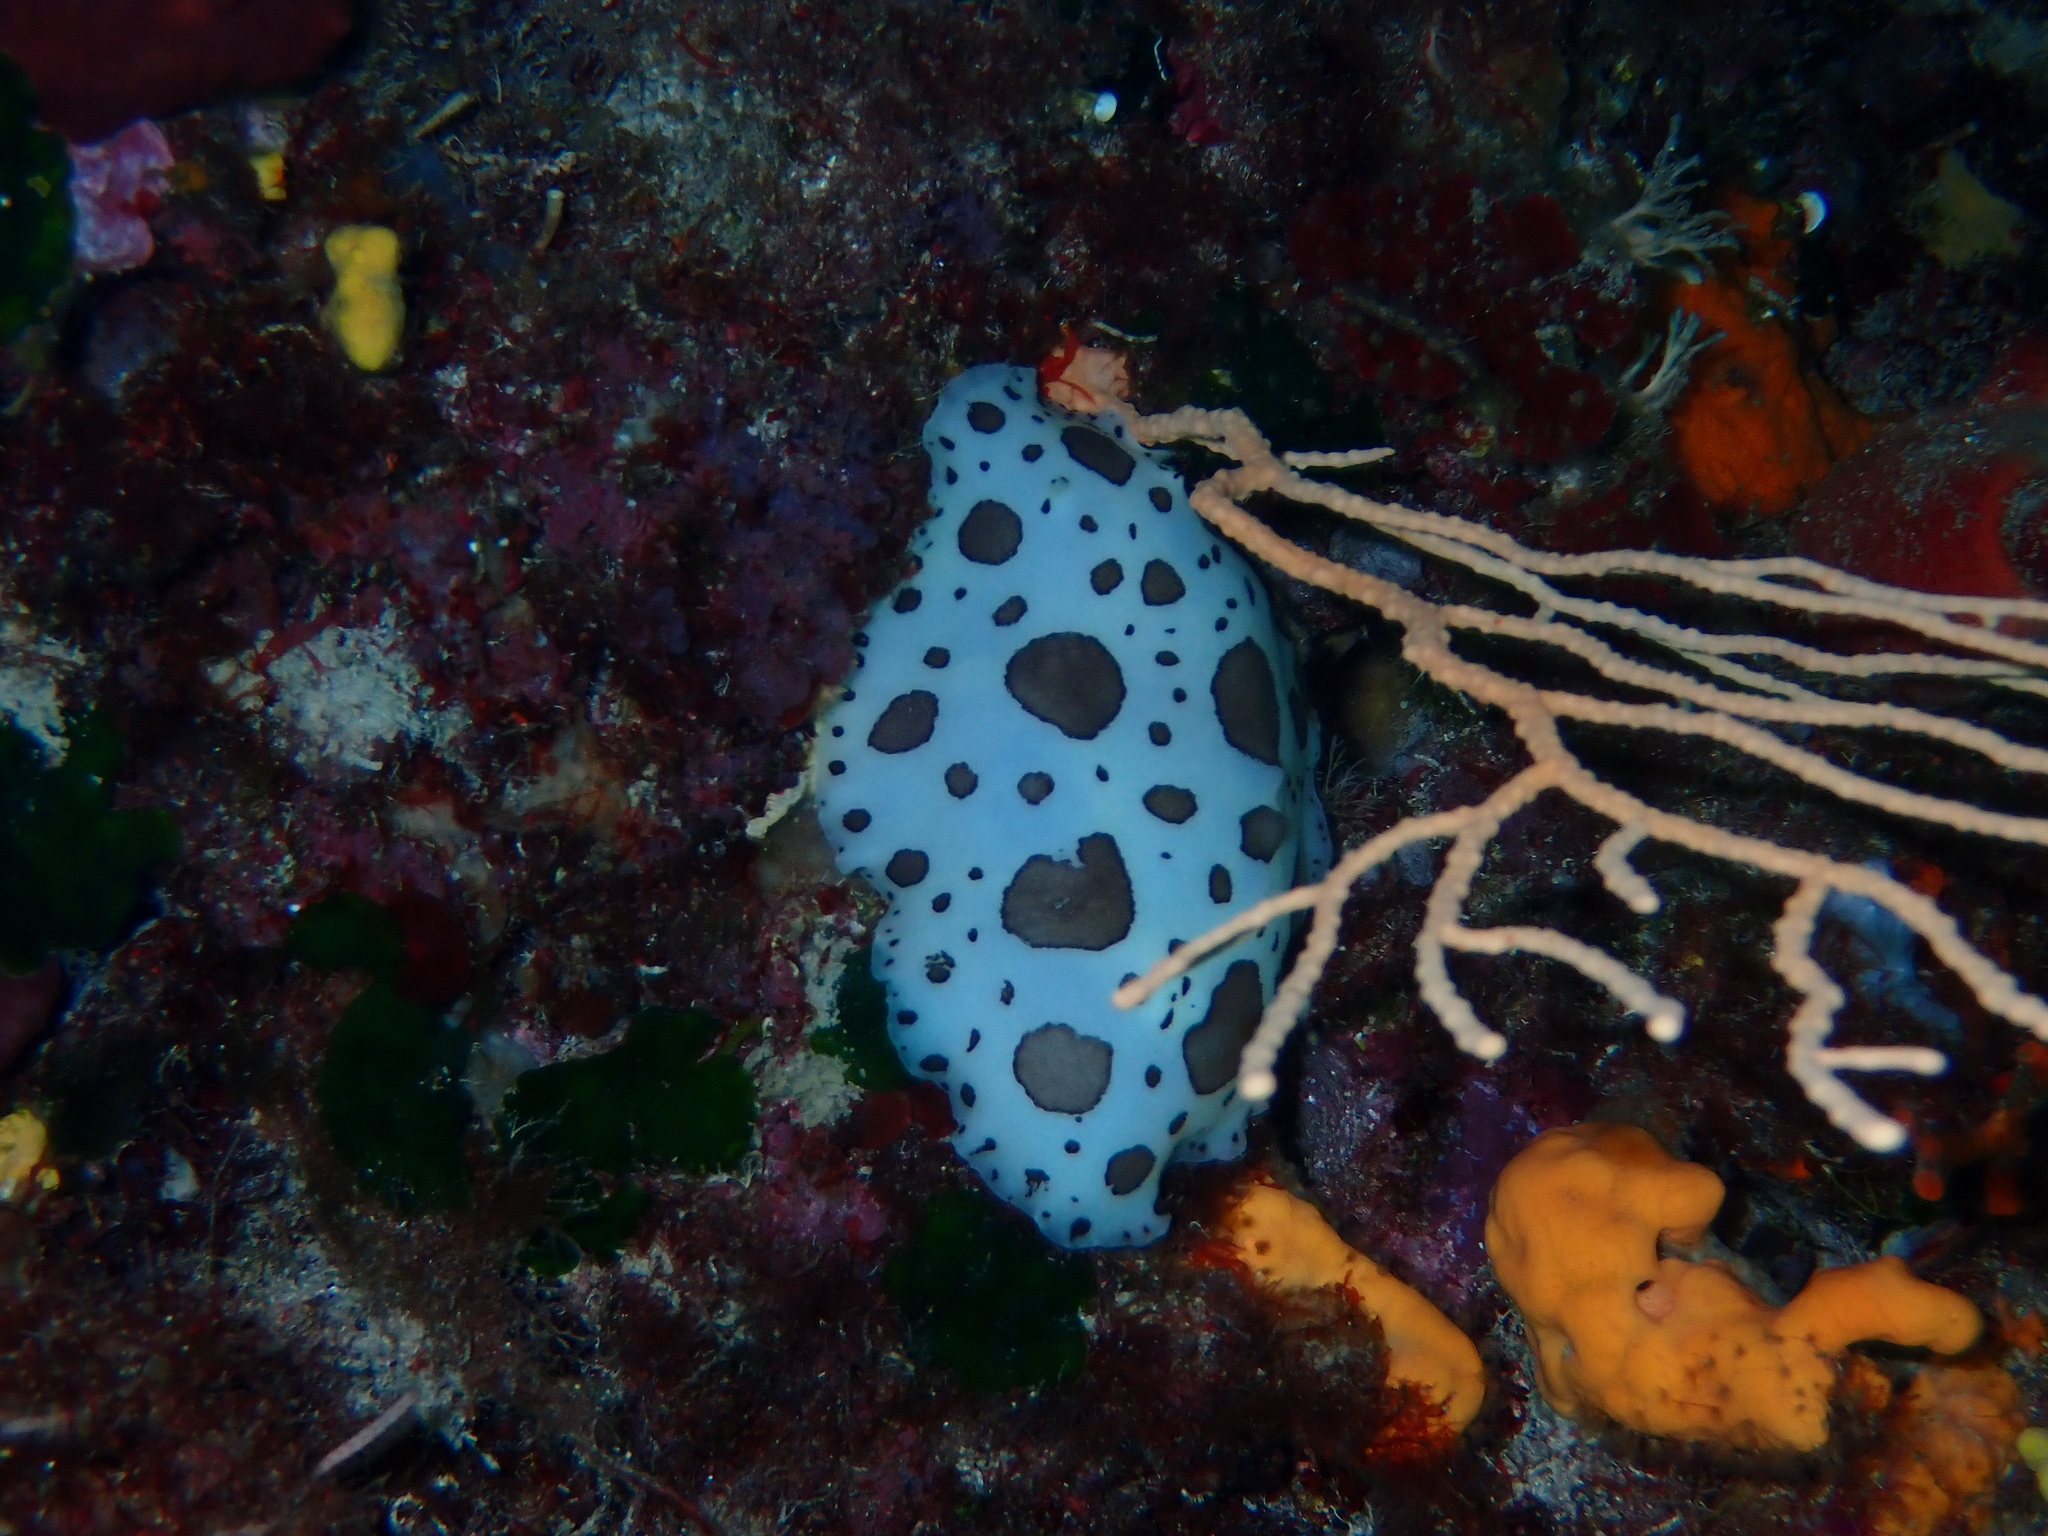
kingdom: Animalia
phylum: Mollusca
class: Gastropoda
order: Nudibranchia
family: Discodorididae
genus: Peltodoris
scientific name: Peltodoris atromaculata
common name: Swiss cow nudibranch
